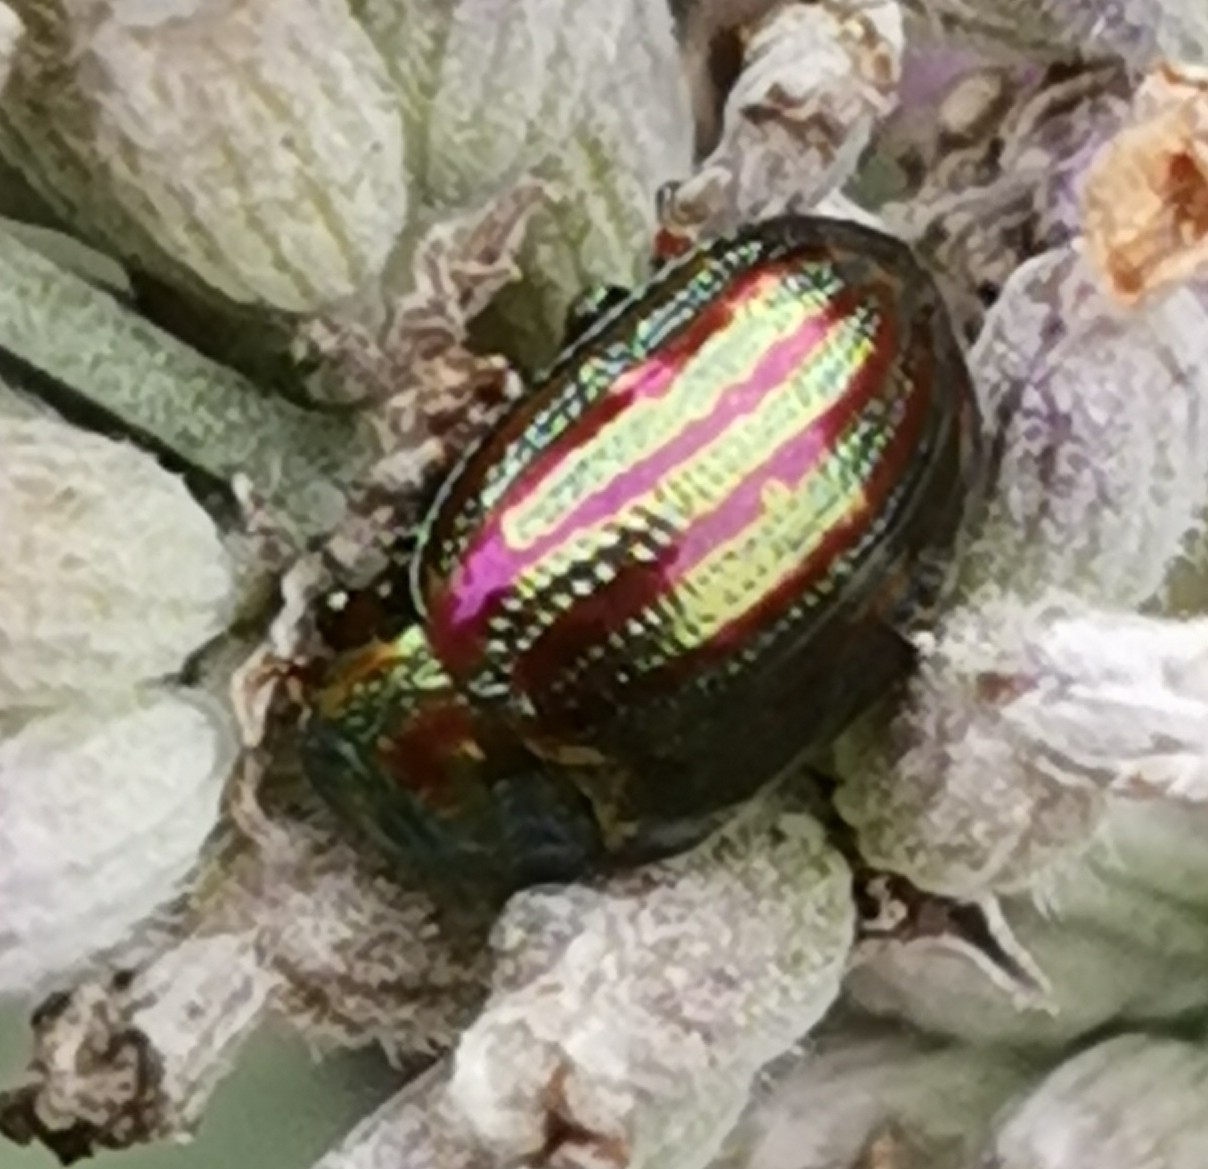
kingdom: Animalia
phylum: Arthropoda
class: Insecta
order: Coleoptera
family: Chrysomelidae
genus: Chrysolina
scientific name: Chrysolina americana
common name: Rosemary beetle
